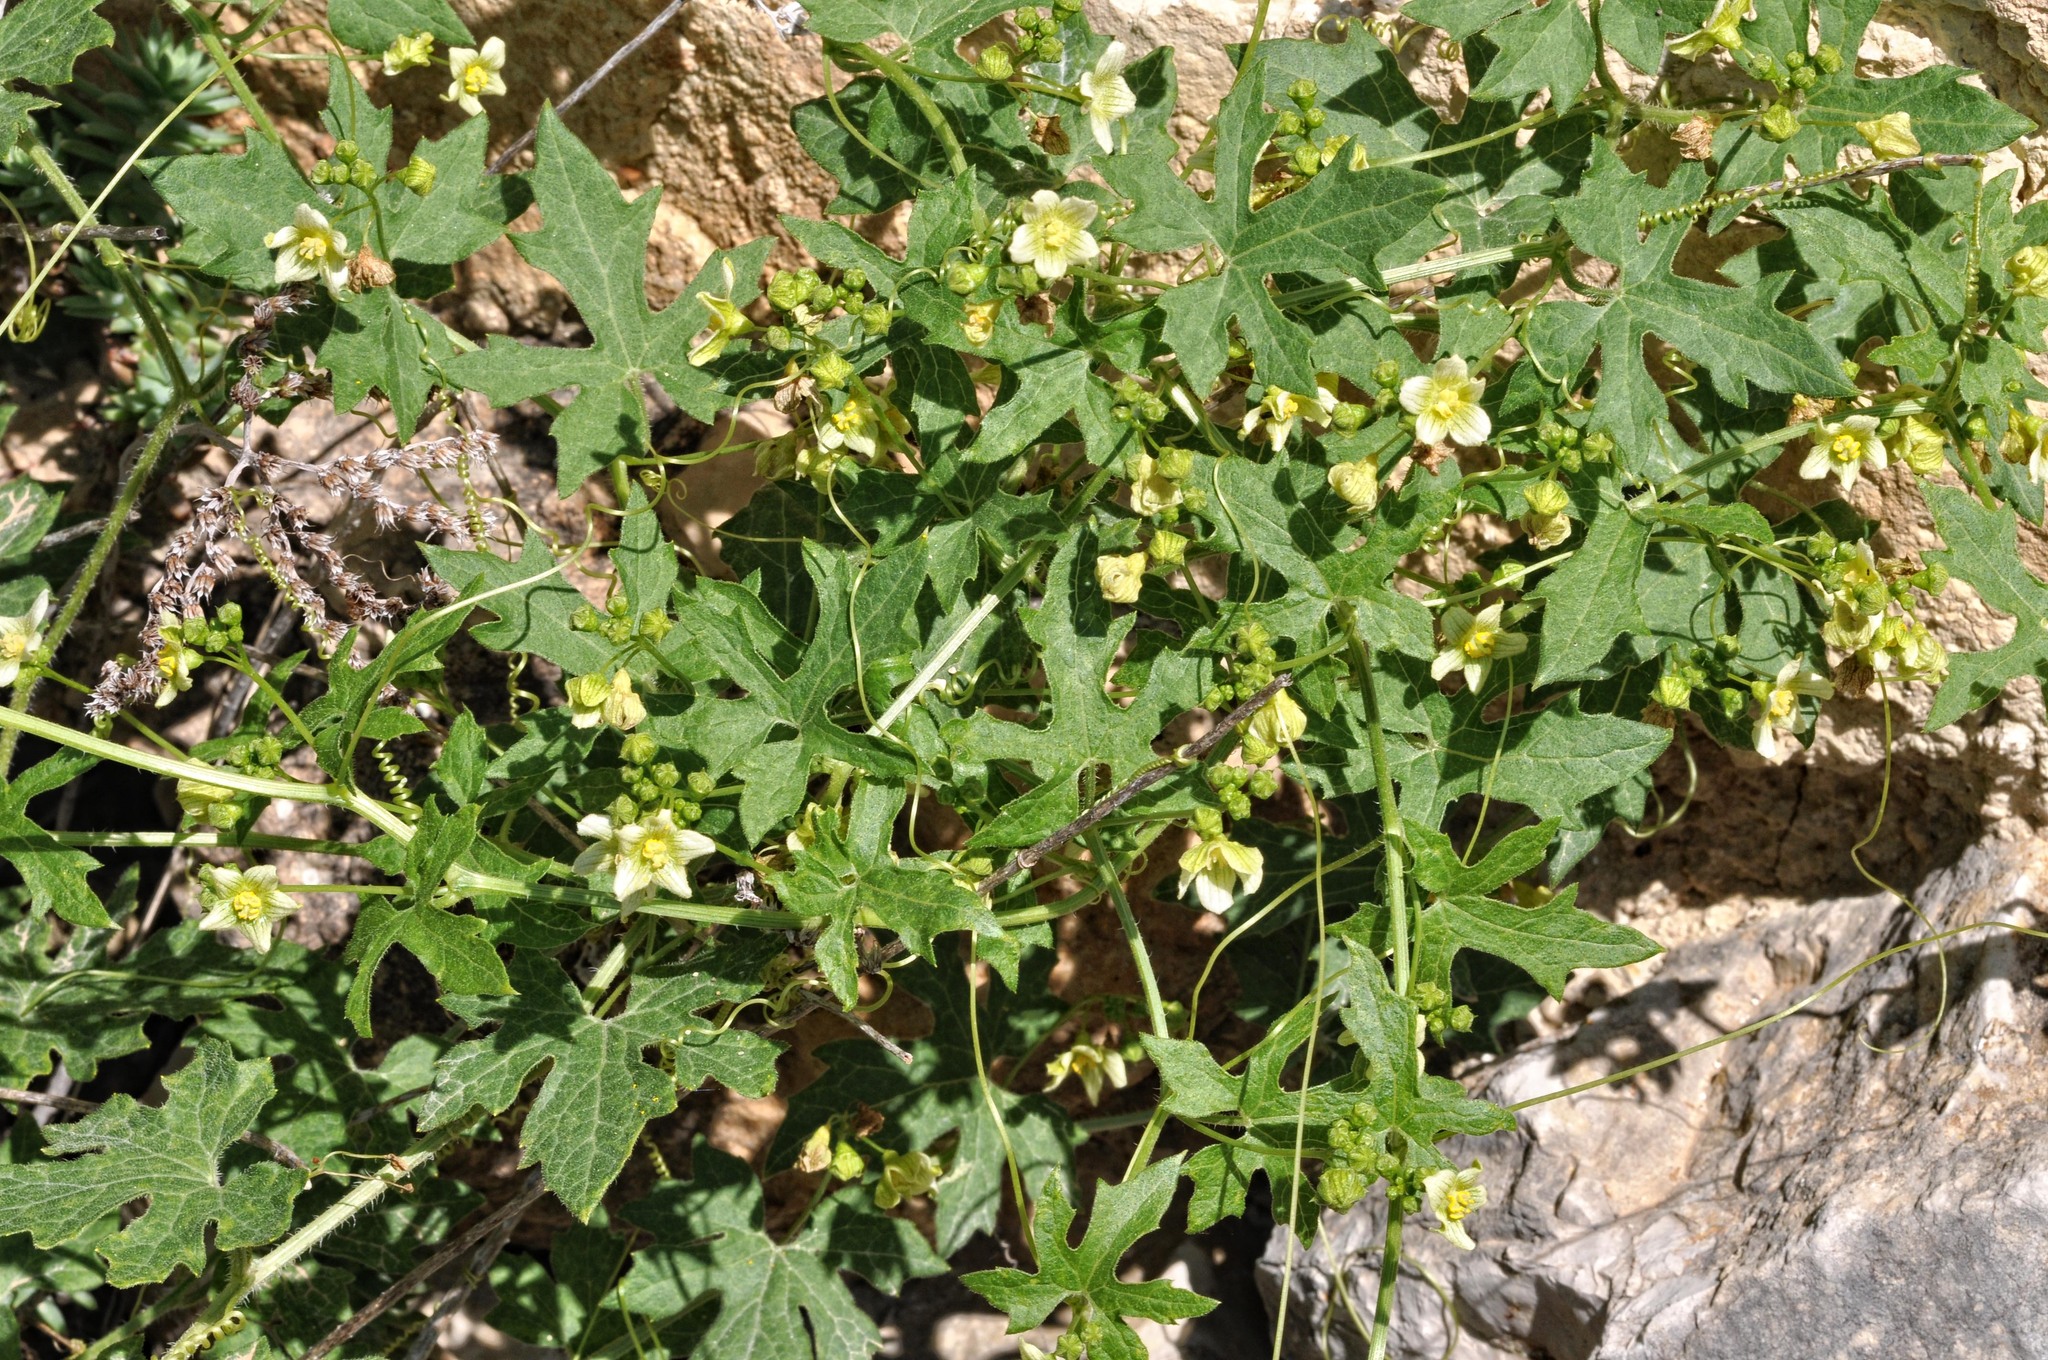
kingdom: Plantae
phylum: Tracheophyta
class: Magnoliopsida
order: Cucurbitales
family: Cucurbitaceae
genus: Bryonia
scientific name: Bryonia dioica
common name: White bryony
